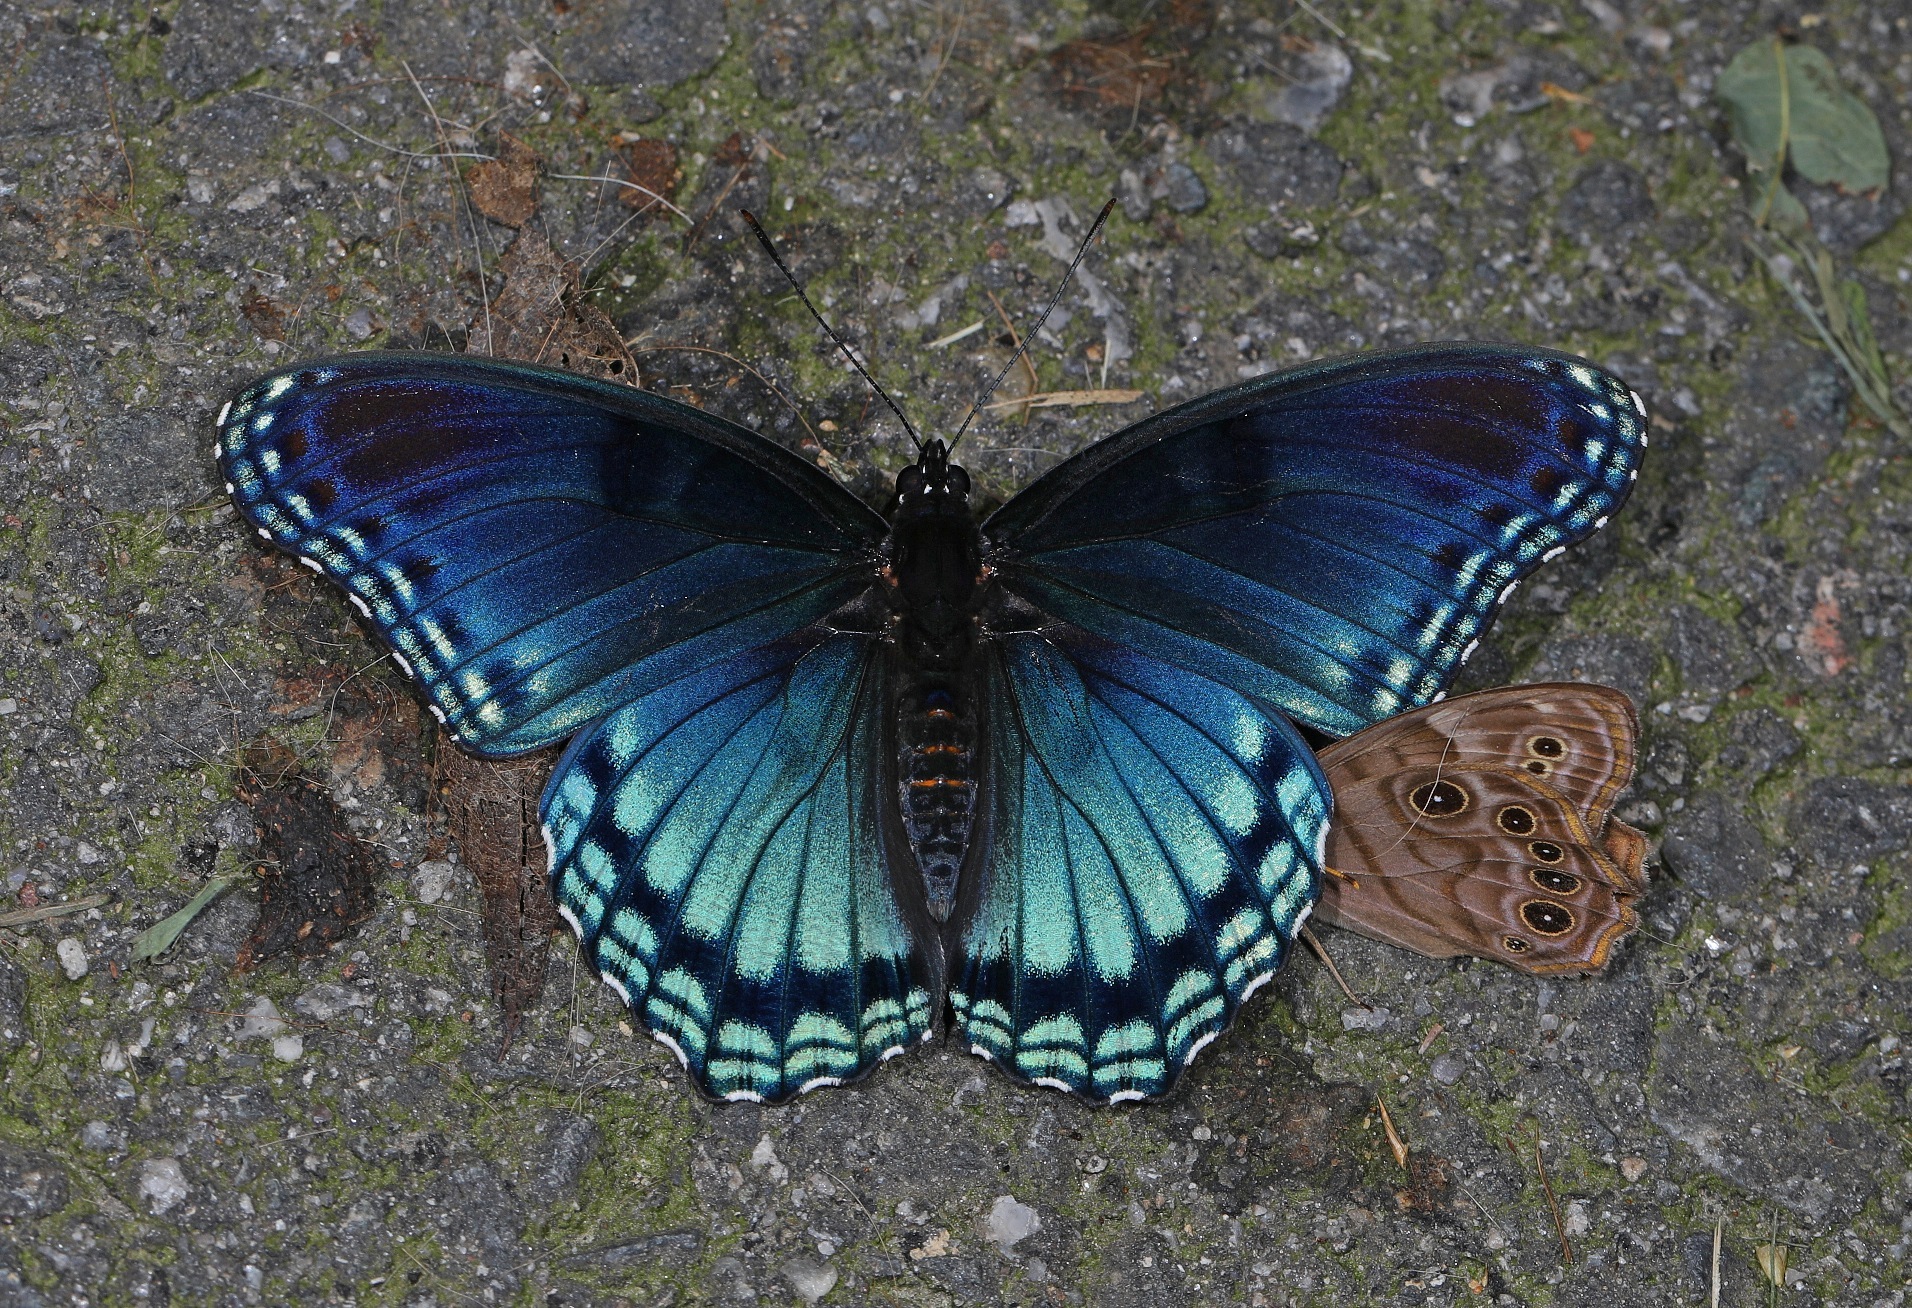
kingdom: Animalia
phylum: Arthropoda
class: Insecta
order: Lepidoptera
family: Nymphalidae
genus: Limenitis
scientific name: Limenitis astyanax
